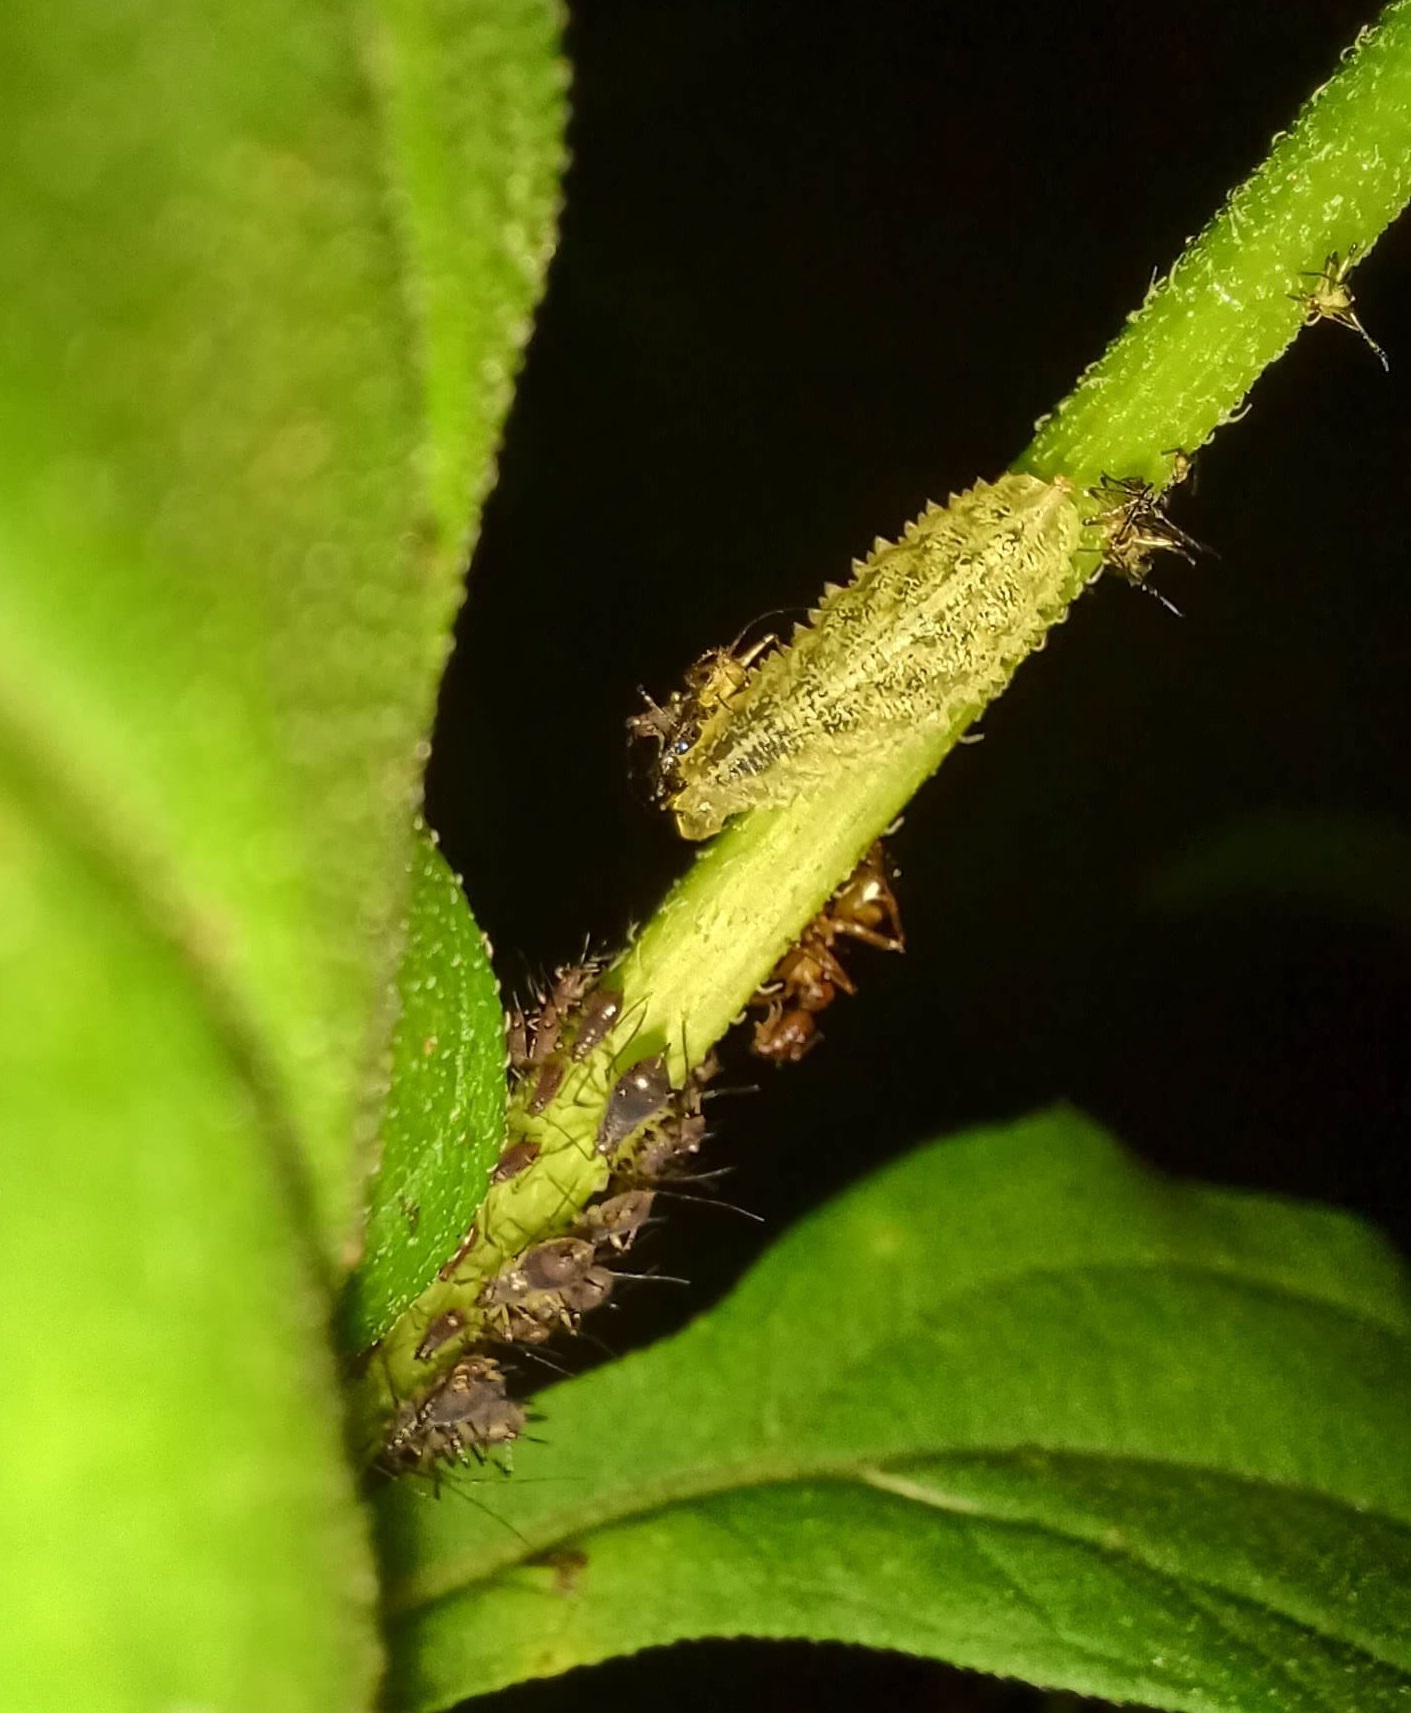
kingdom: Animalia
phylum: Arthropoda
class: Insecta
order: Diptera
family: Syrphidae
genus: Epistrophella
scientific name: Epistrophella emarginata
